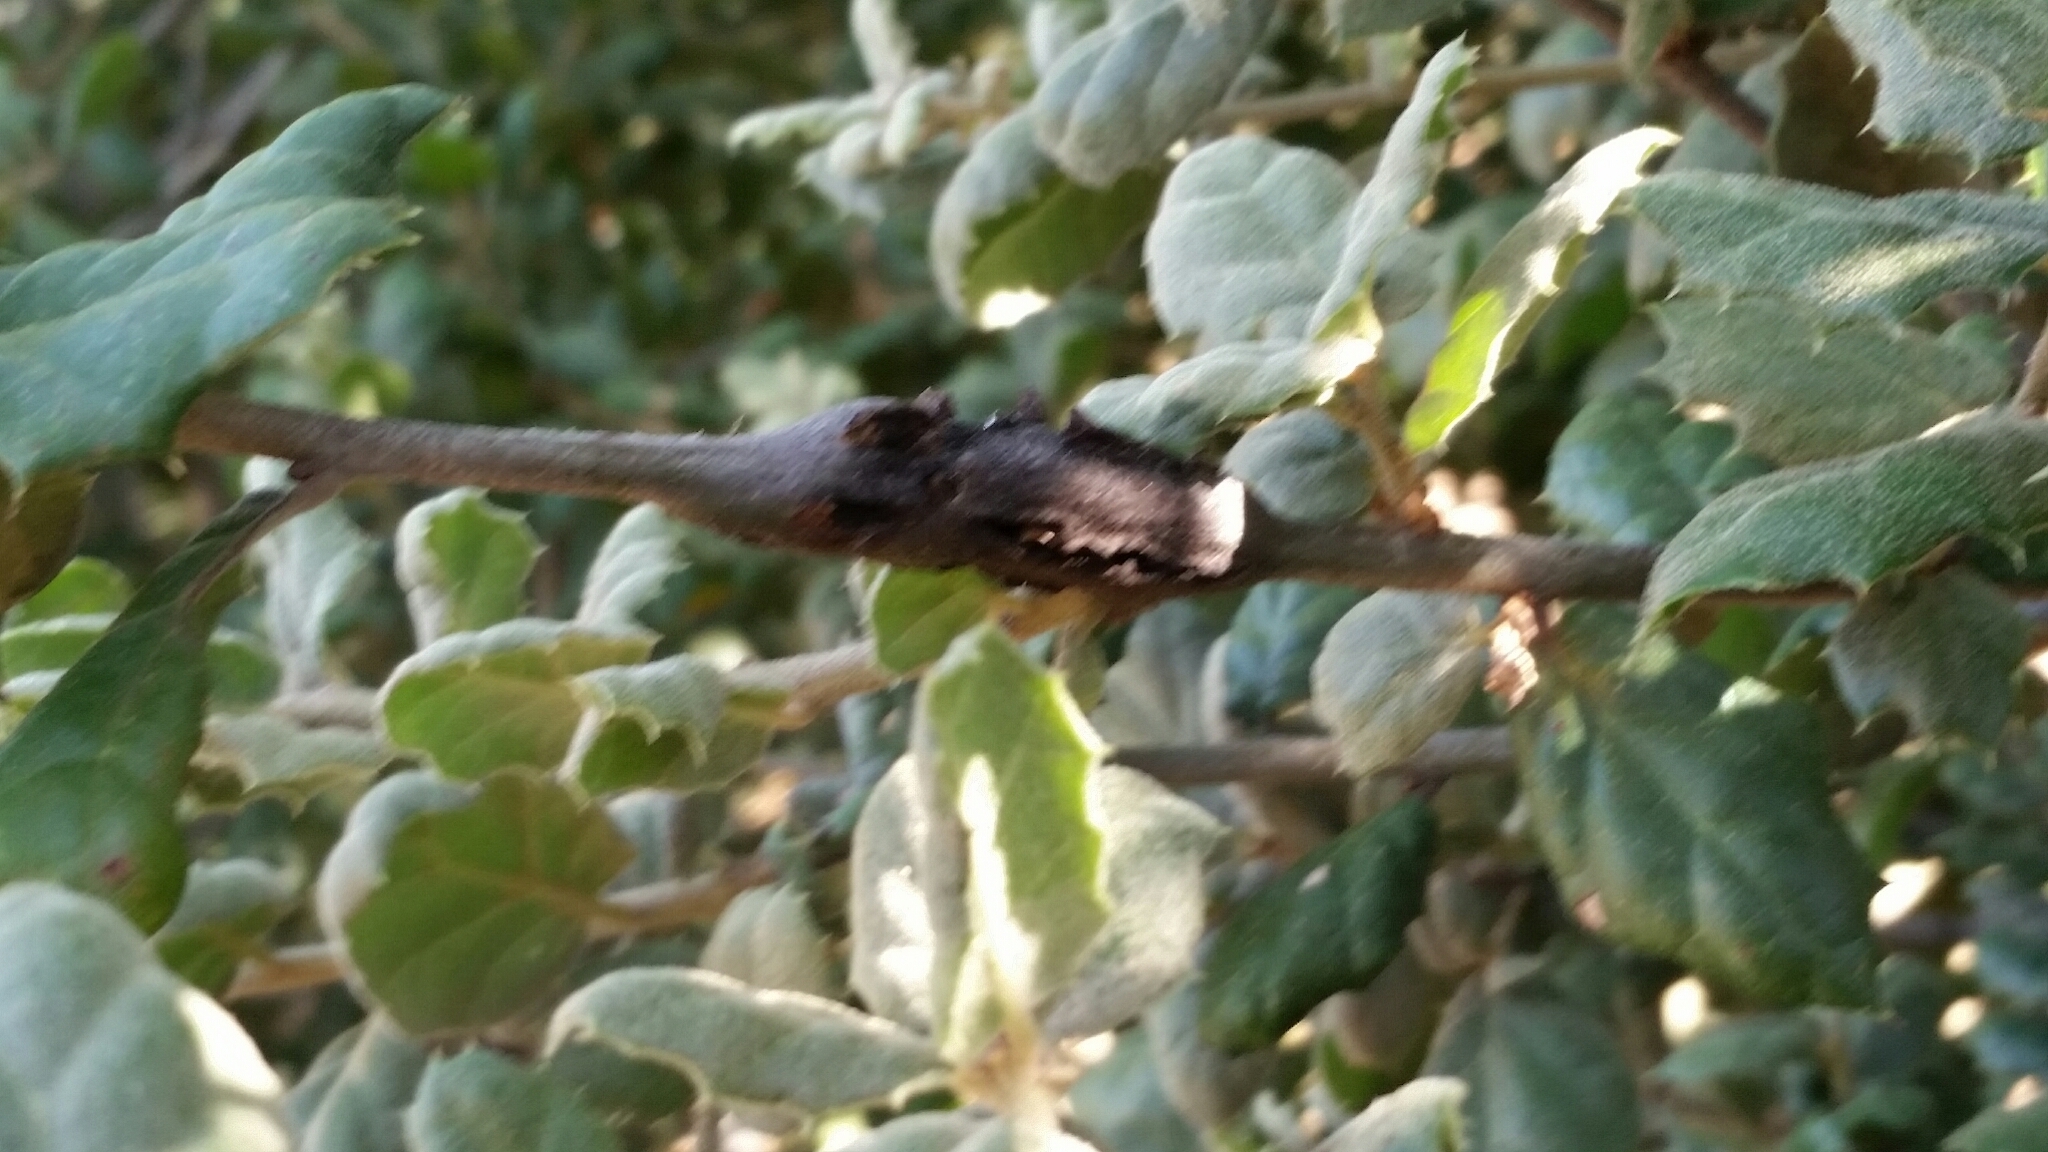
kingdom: Animalia
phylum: Arthropoda
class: Insecta
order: Hymenoptera
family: Cynipidae
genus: Callirhytis
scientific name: Callirhytis
